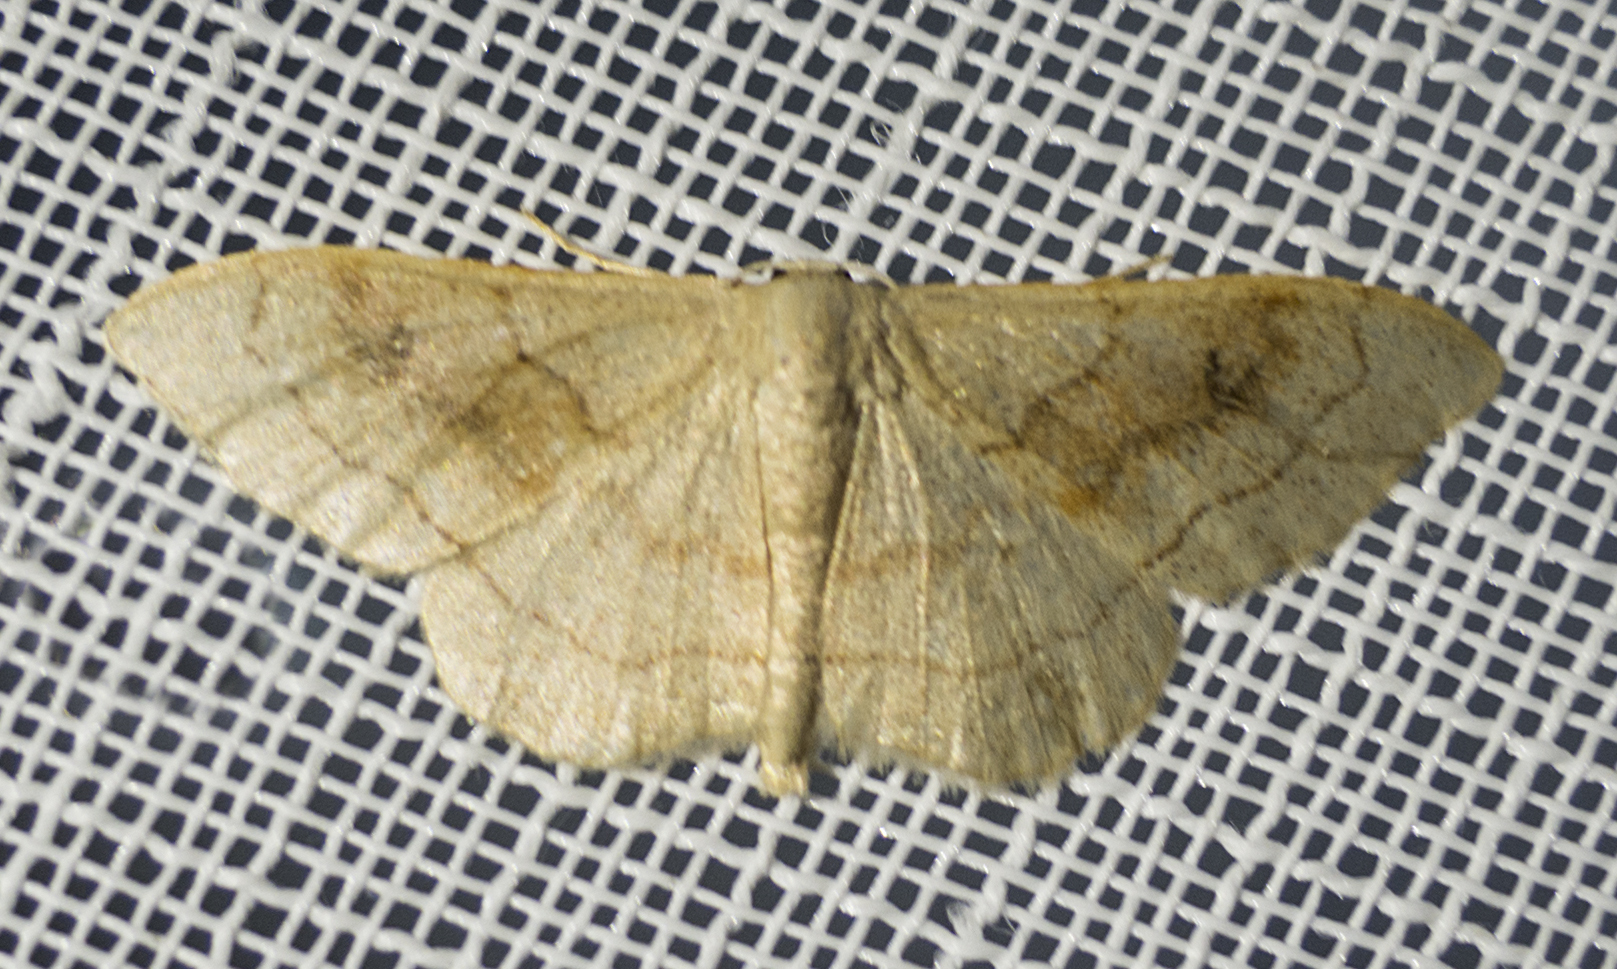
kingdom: Animalia
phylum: Arthropoda
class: Insecta
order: Lepidoptera
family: Geometridae
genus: Idaea
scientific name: Idaea bilinearia
